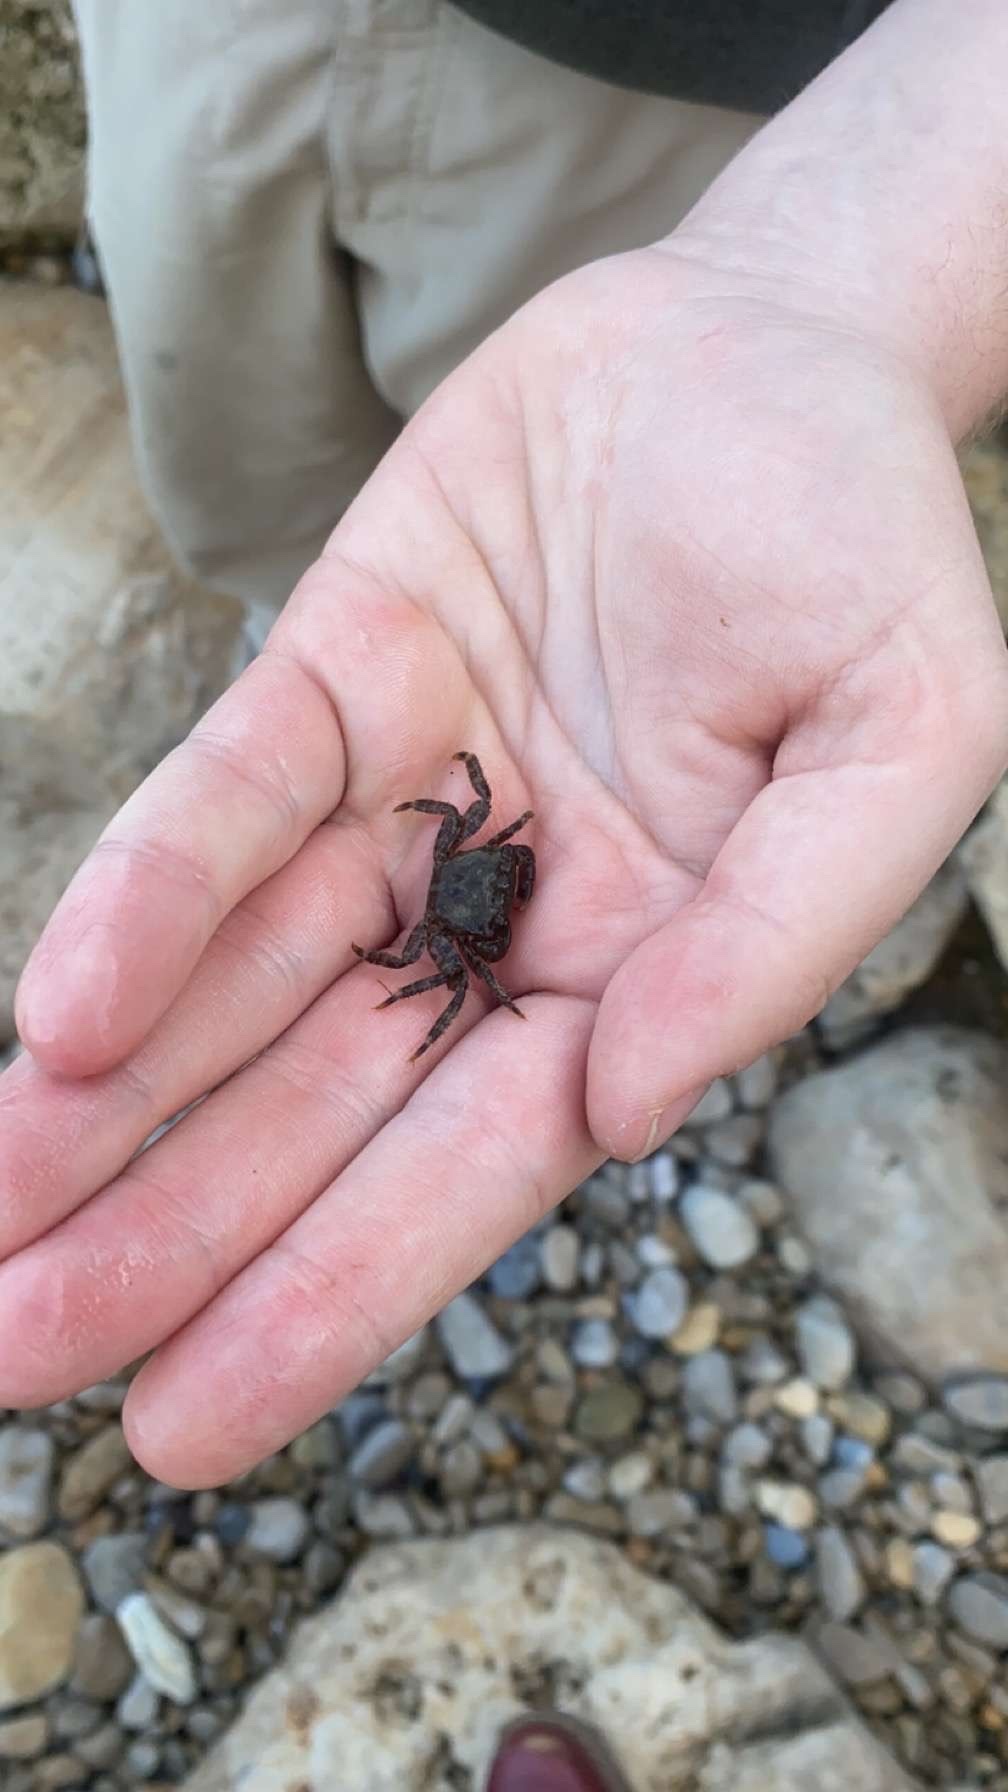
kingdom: Animalia
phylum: Arthropoda
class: Malacostraca
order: Decapoda
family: Grapsidae
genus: Pachygrapsus
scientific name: Pachygrapsus marmoratus
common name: Marbled rock crab
